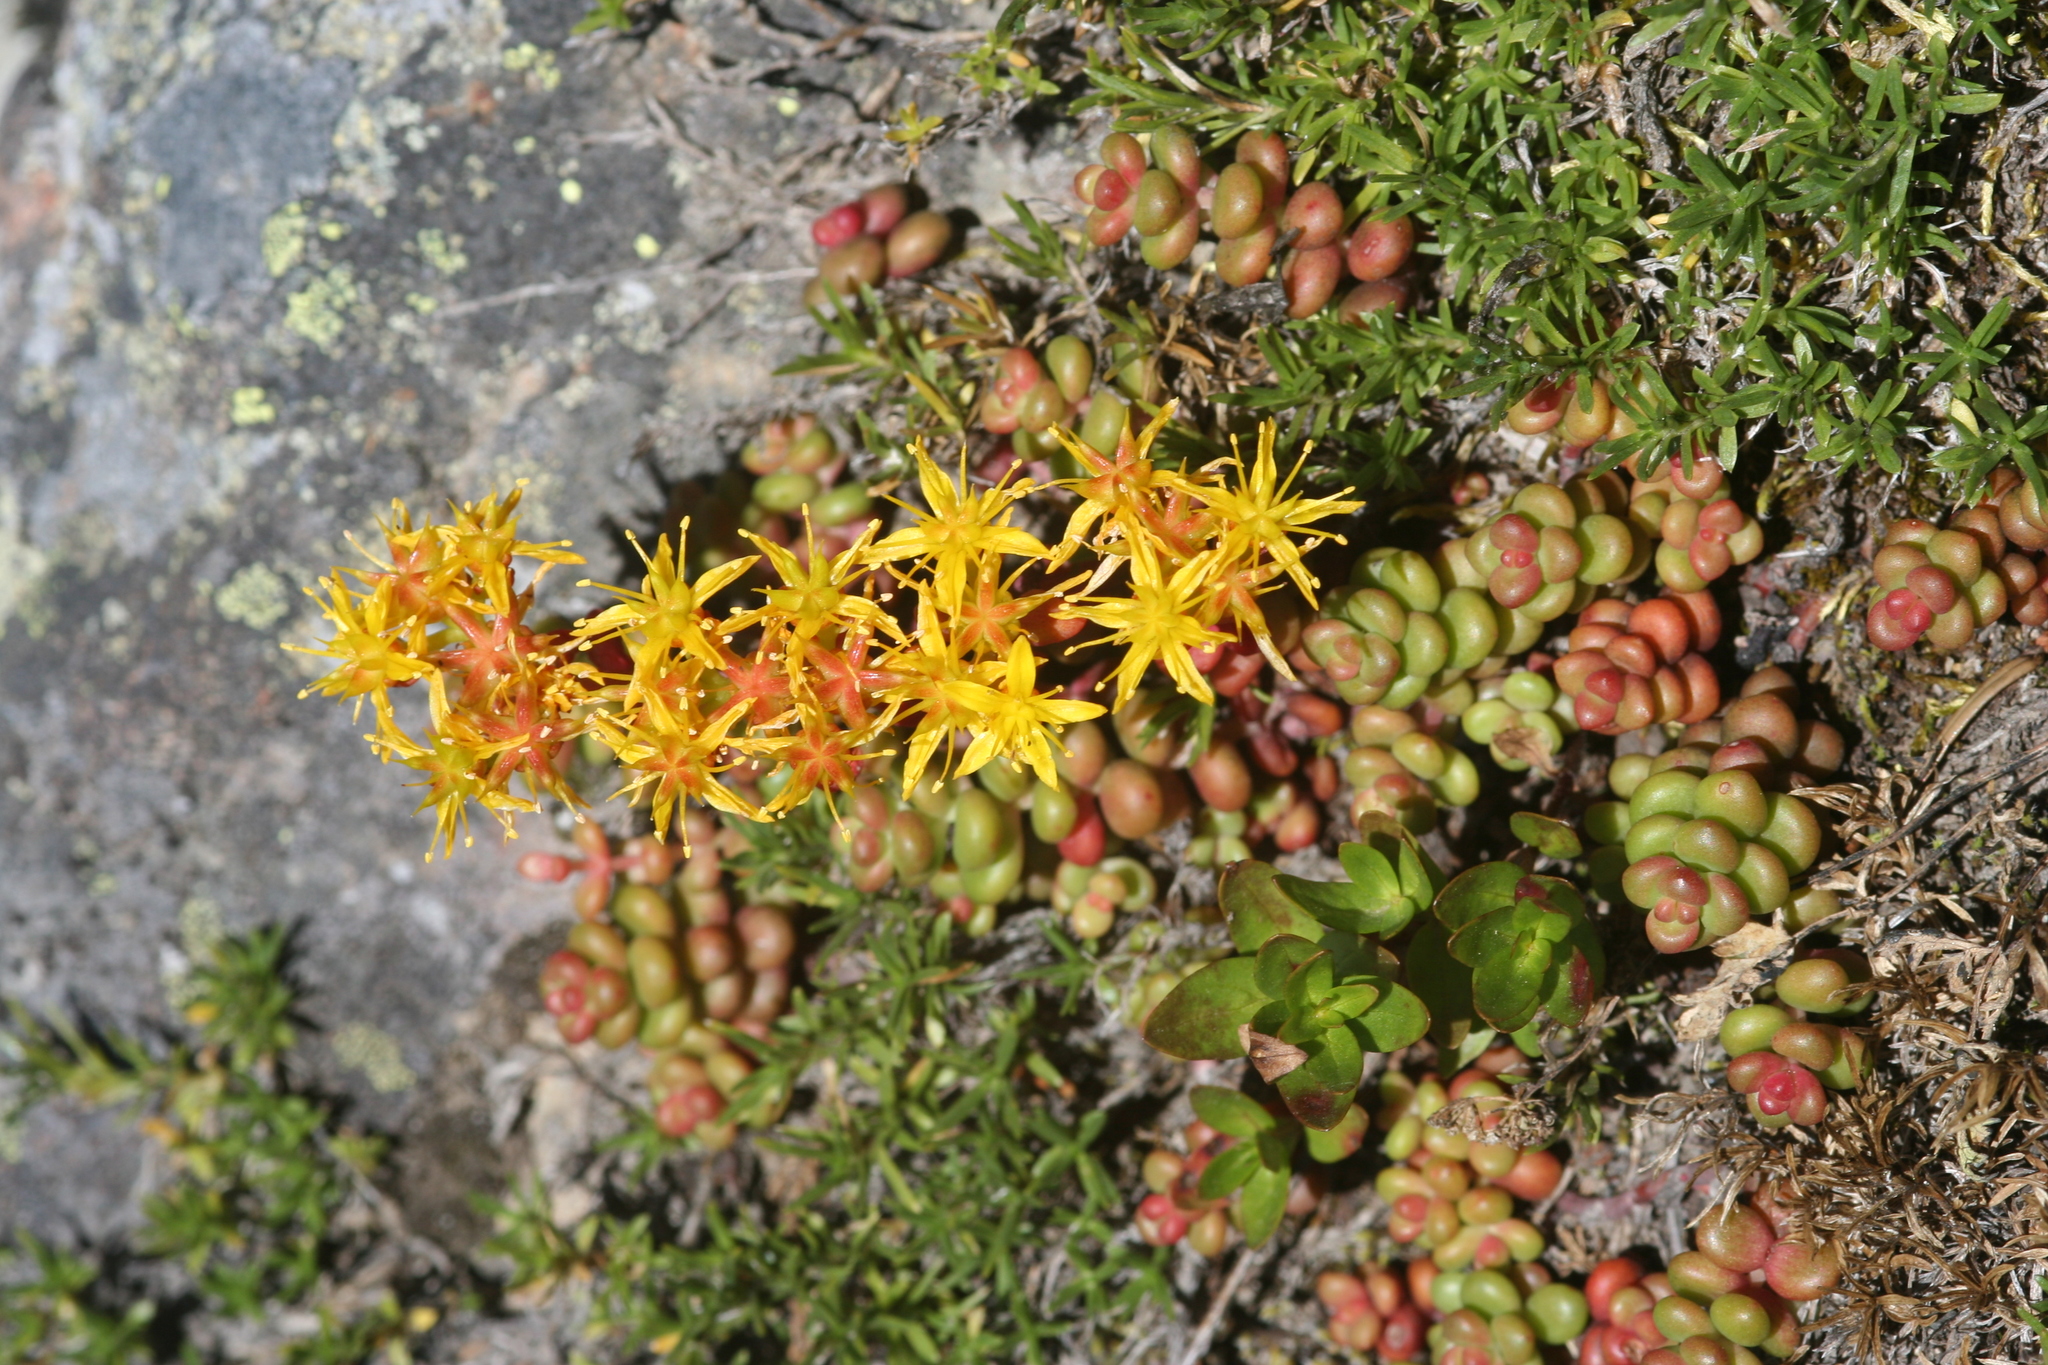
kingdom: Plantae
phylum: Tracheophyta
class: Magnoliopsida
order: Saxifragales
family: Crassulaceae
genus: Sedum
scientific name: Sedum divergens
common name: Cascade stonecrop
